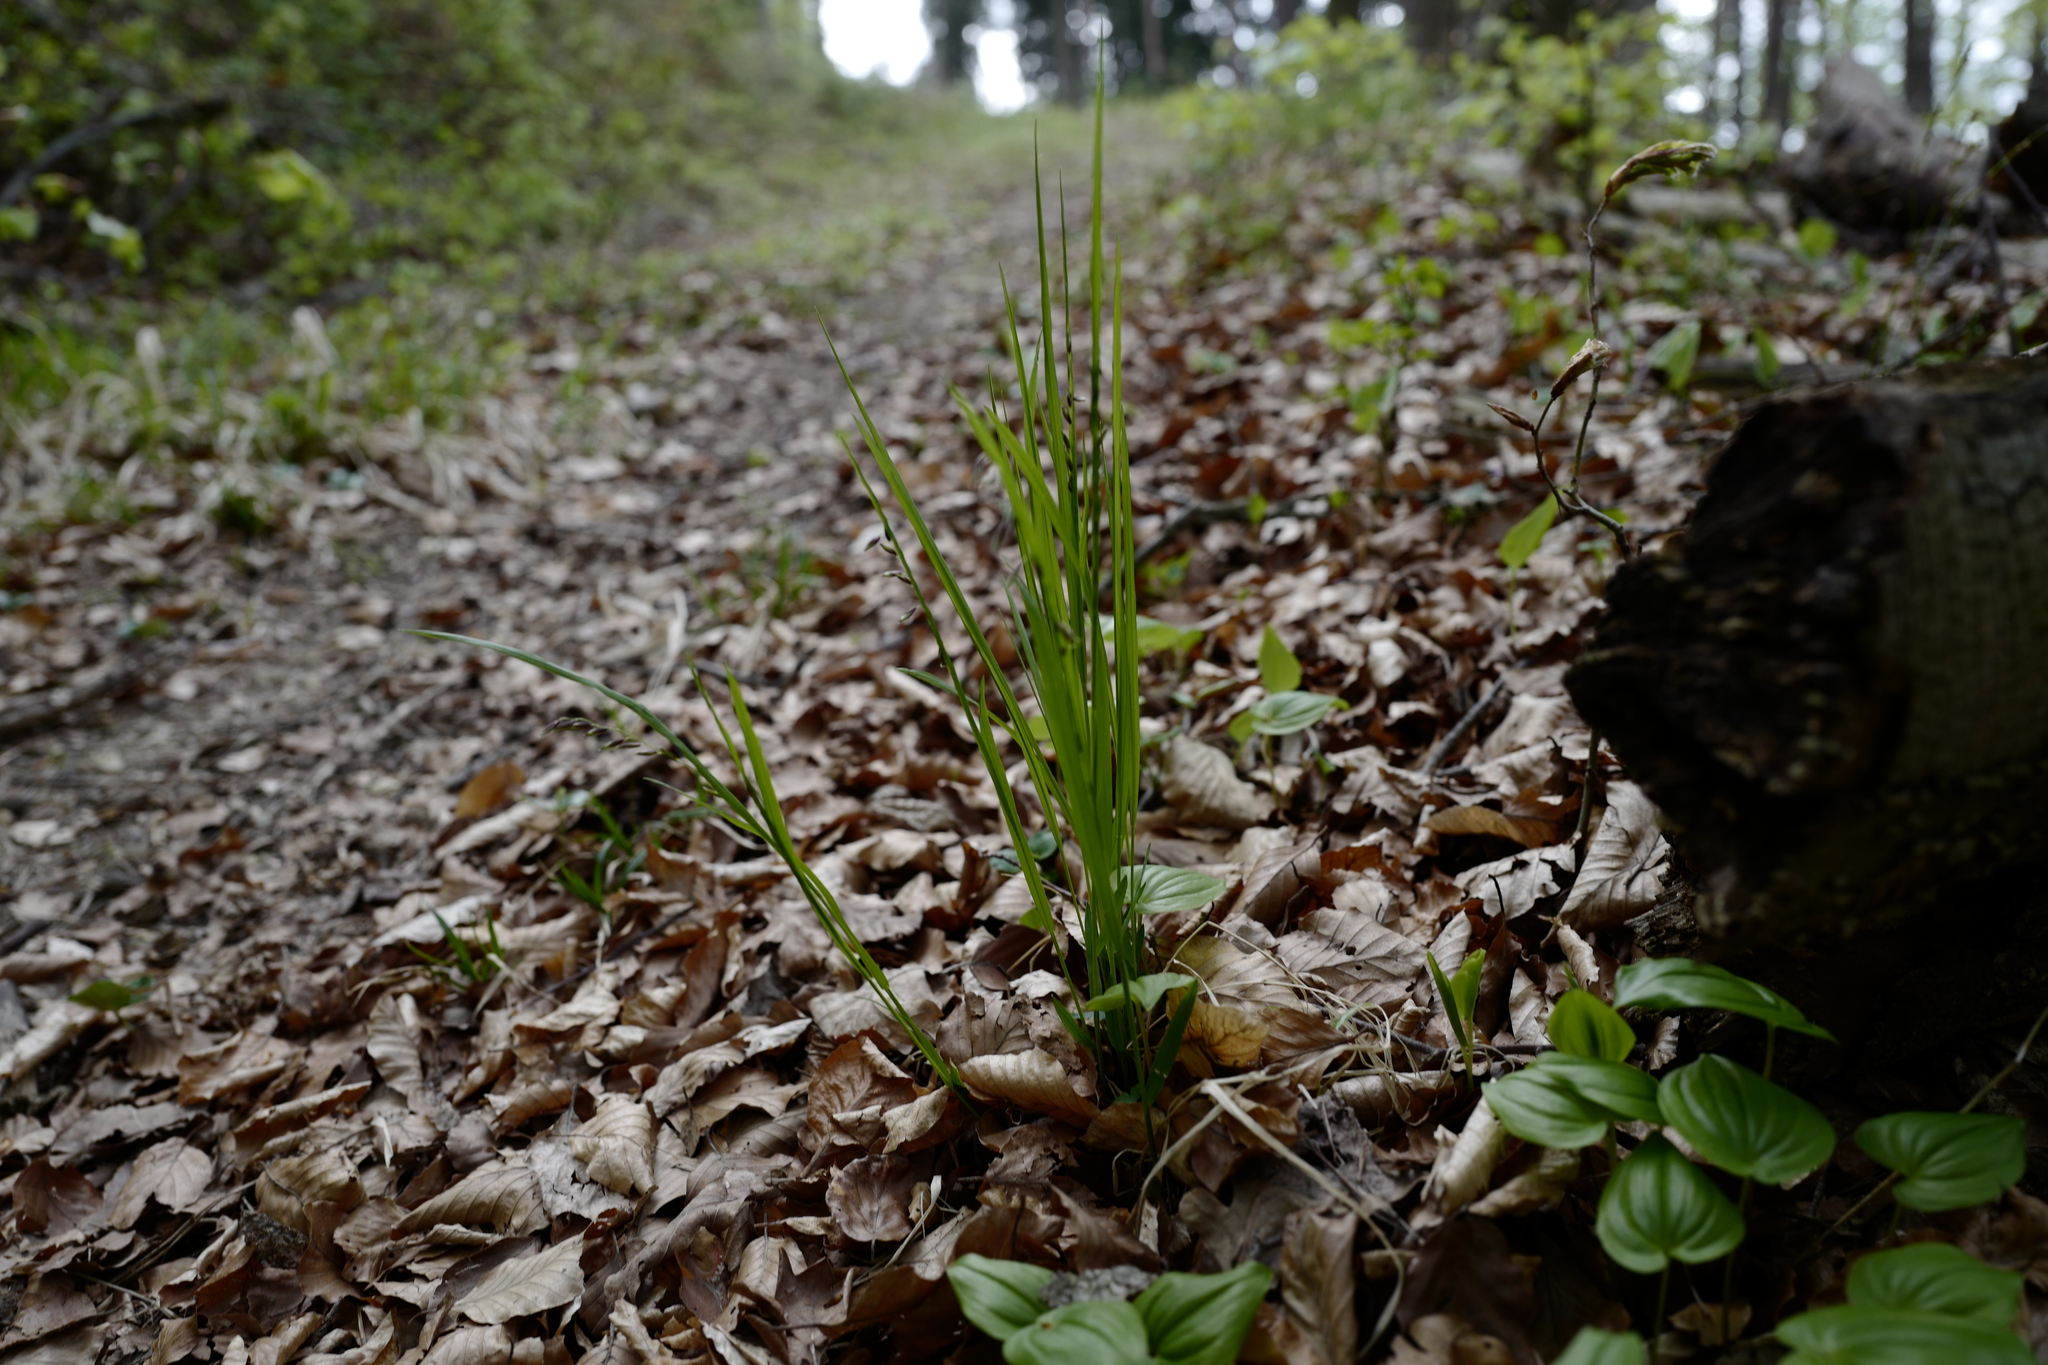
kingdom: Plantae
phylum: Tracheophyta
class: Liliopsida
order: Poales
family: Poaceae
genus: Melica
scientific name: Melica nutans
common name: Mountain melick
